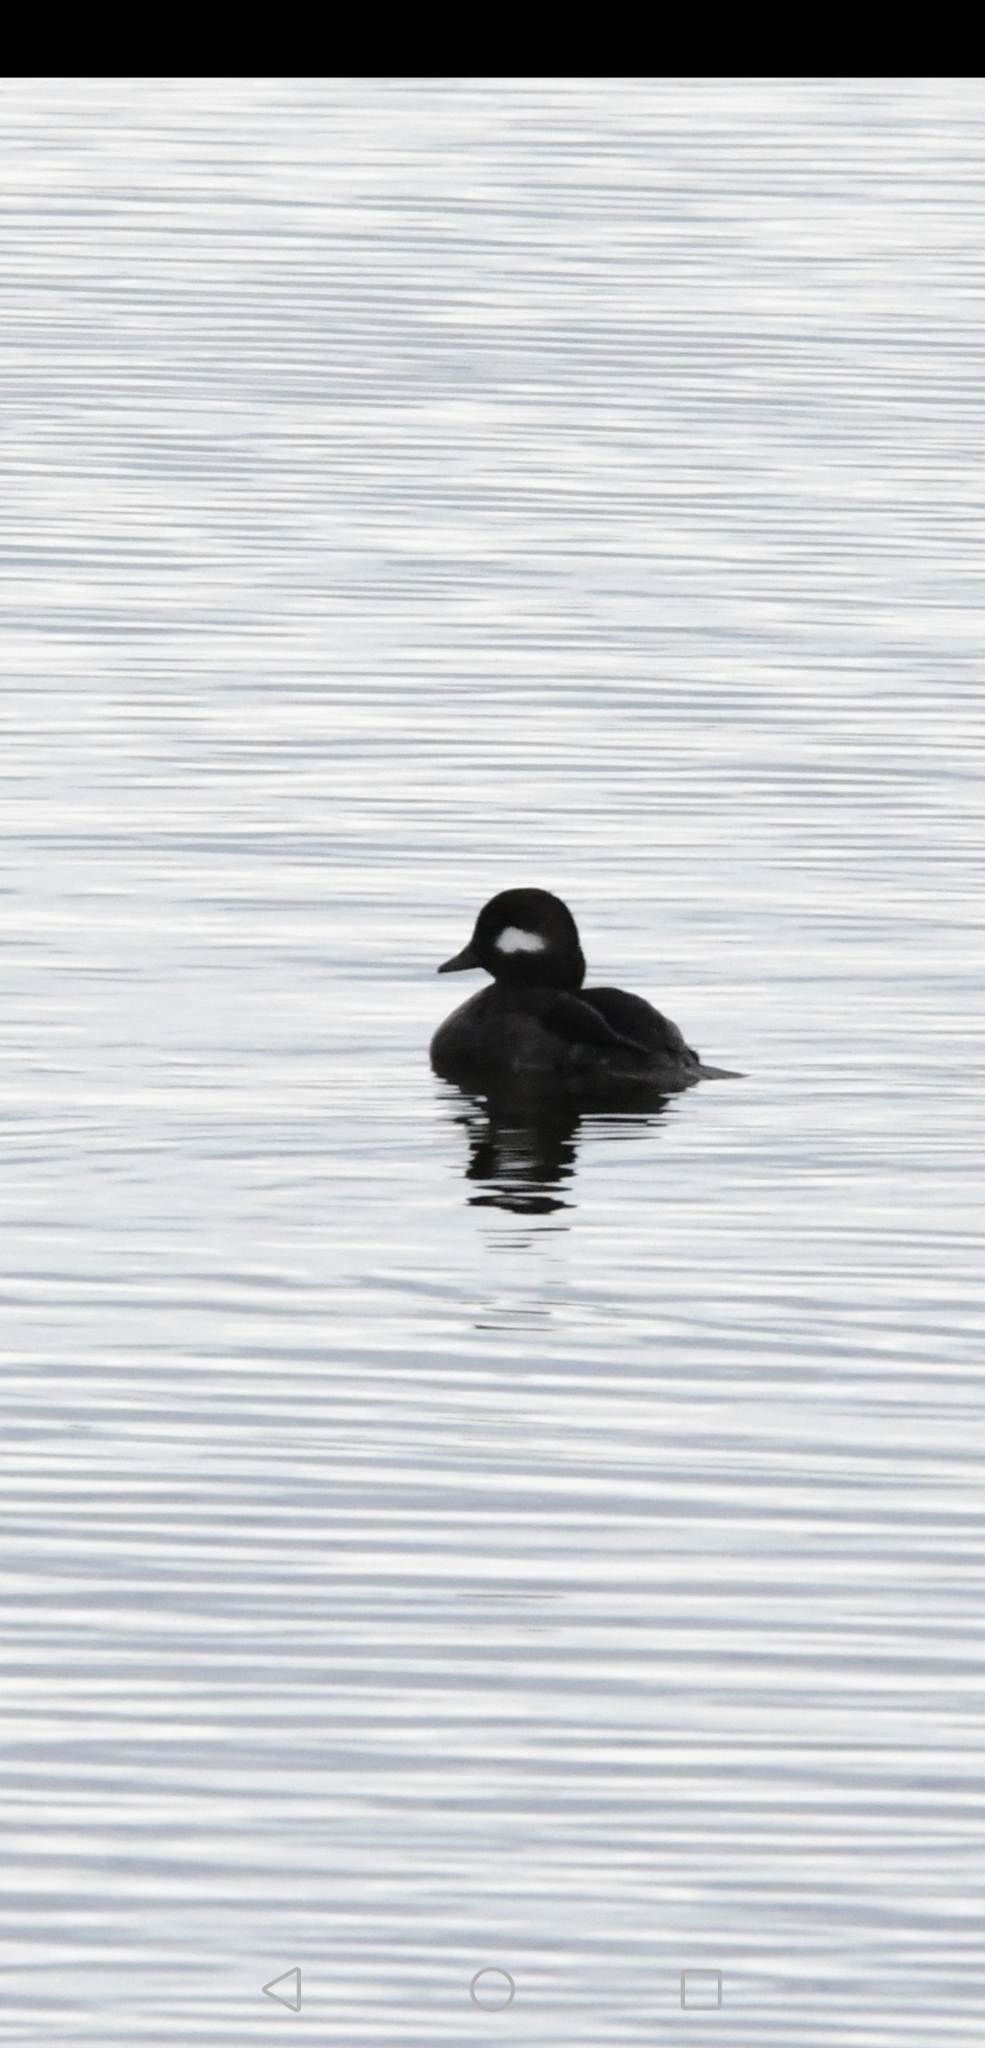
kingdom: Animalia
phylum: Chordata
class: Aves
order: Anseriformes
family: Anatidae
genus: Bucephala
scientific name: Bucephala albeola
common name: Bufflehead
